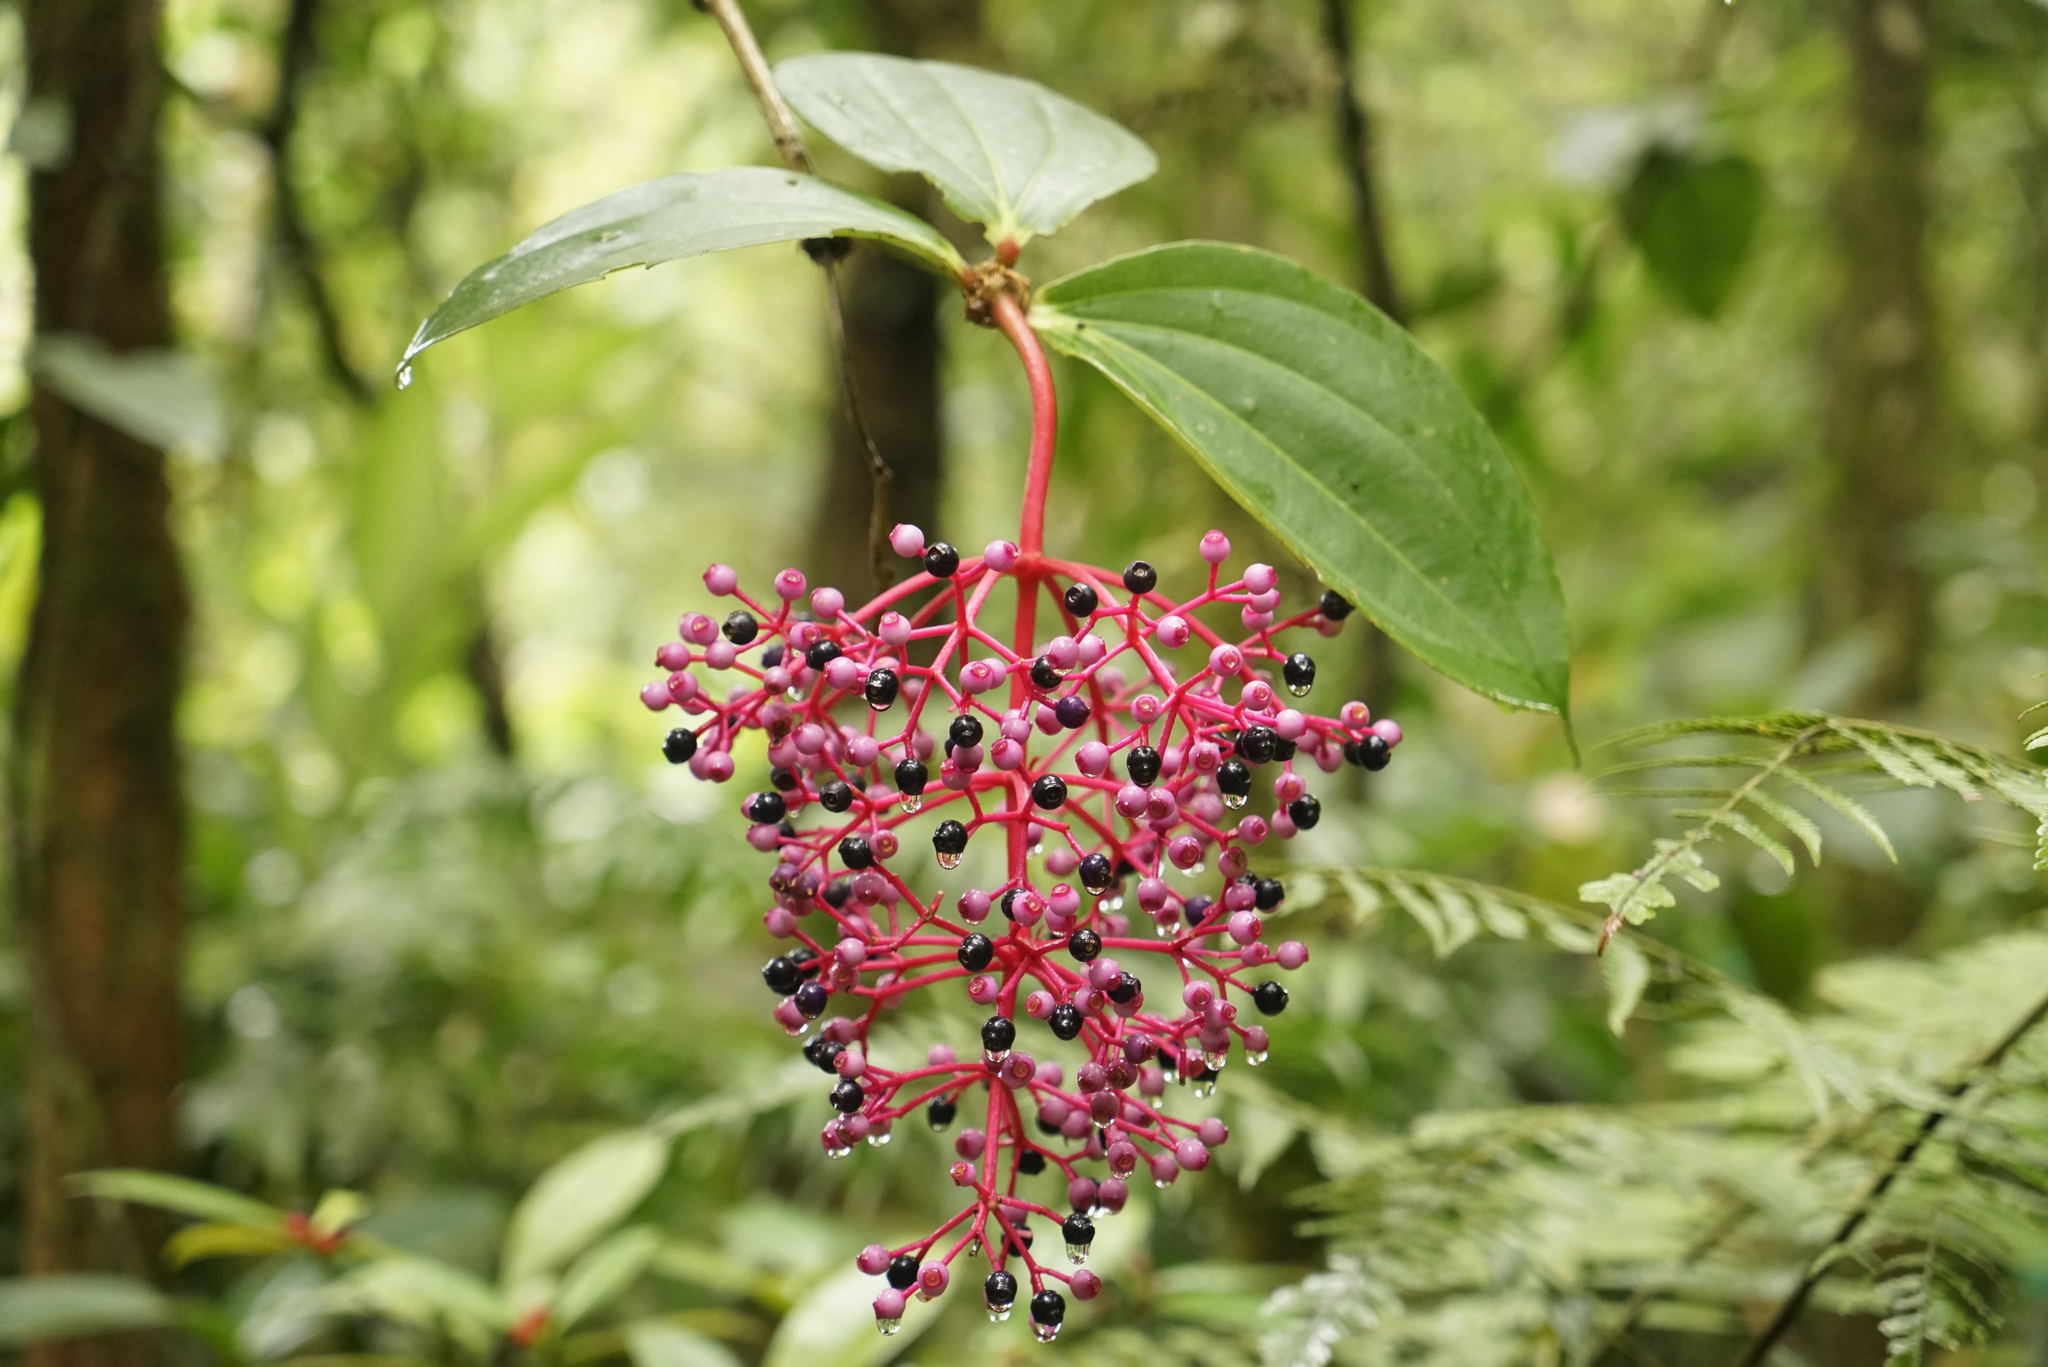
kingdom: Plantae
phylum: Tracheophyta
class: Magnoliopsida
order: Myrtales
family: Melastomataceae
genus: Medinilla
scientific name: Medinilla speciosa
